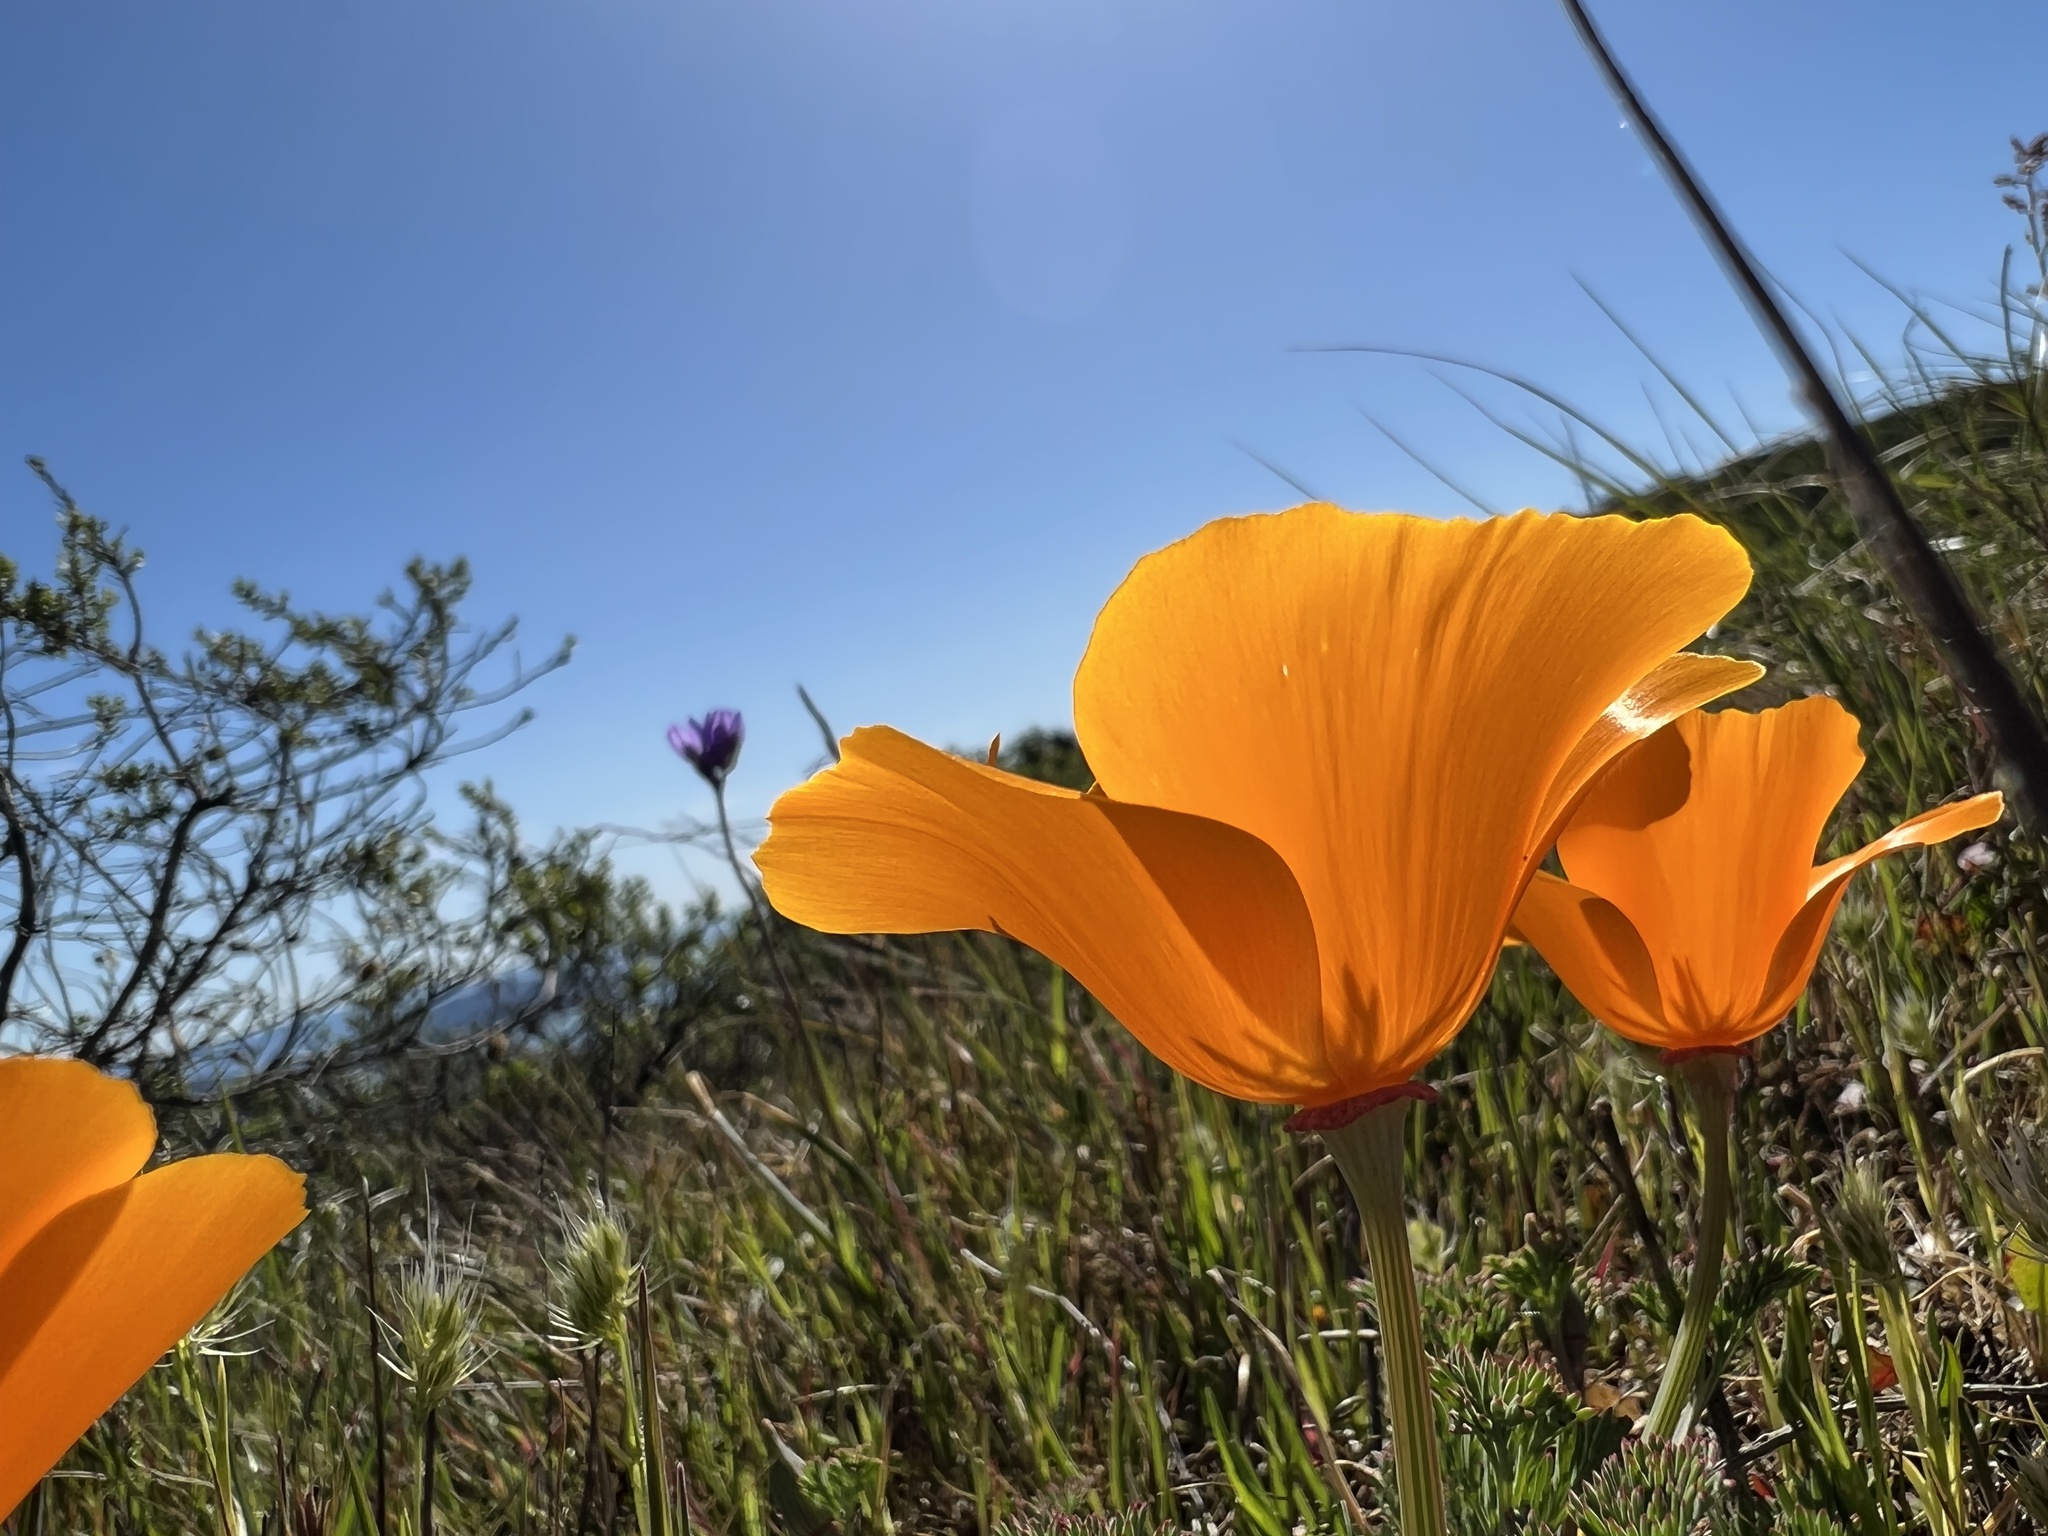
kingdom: Plantae
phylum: Tracheophyta
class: Magnoliopsida
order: Ranunculales
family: Papaveraceae
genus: Eschscholzia
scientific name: Eschscholzia californica
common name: California poppy
